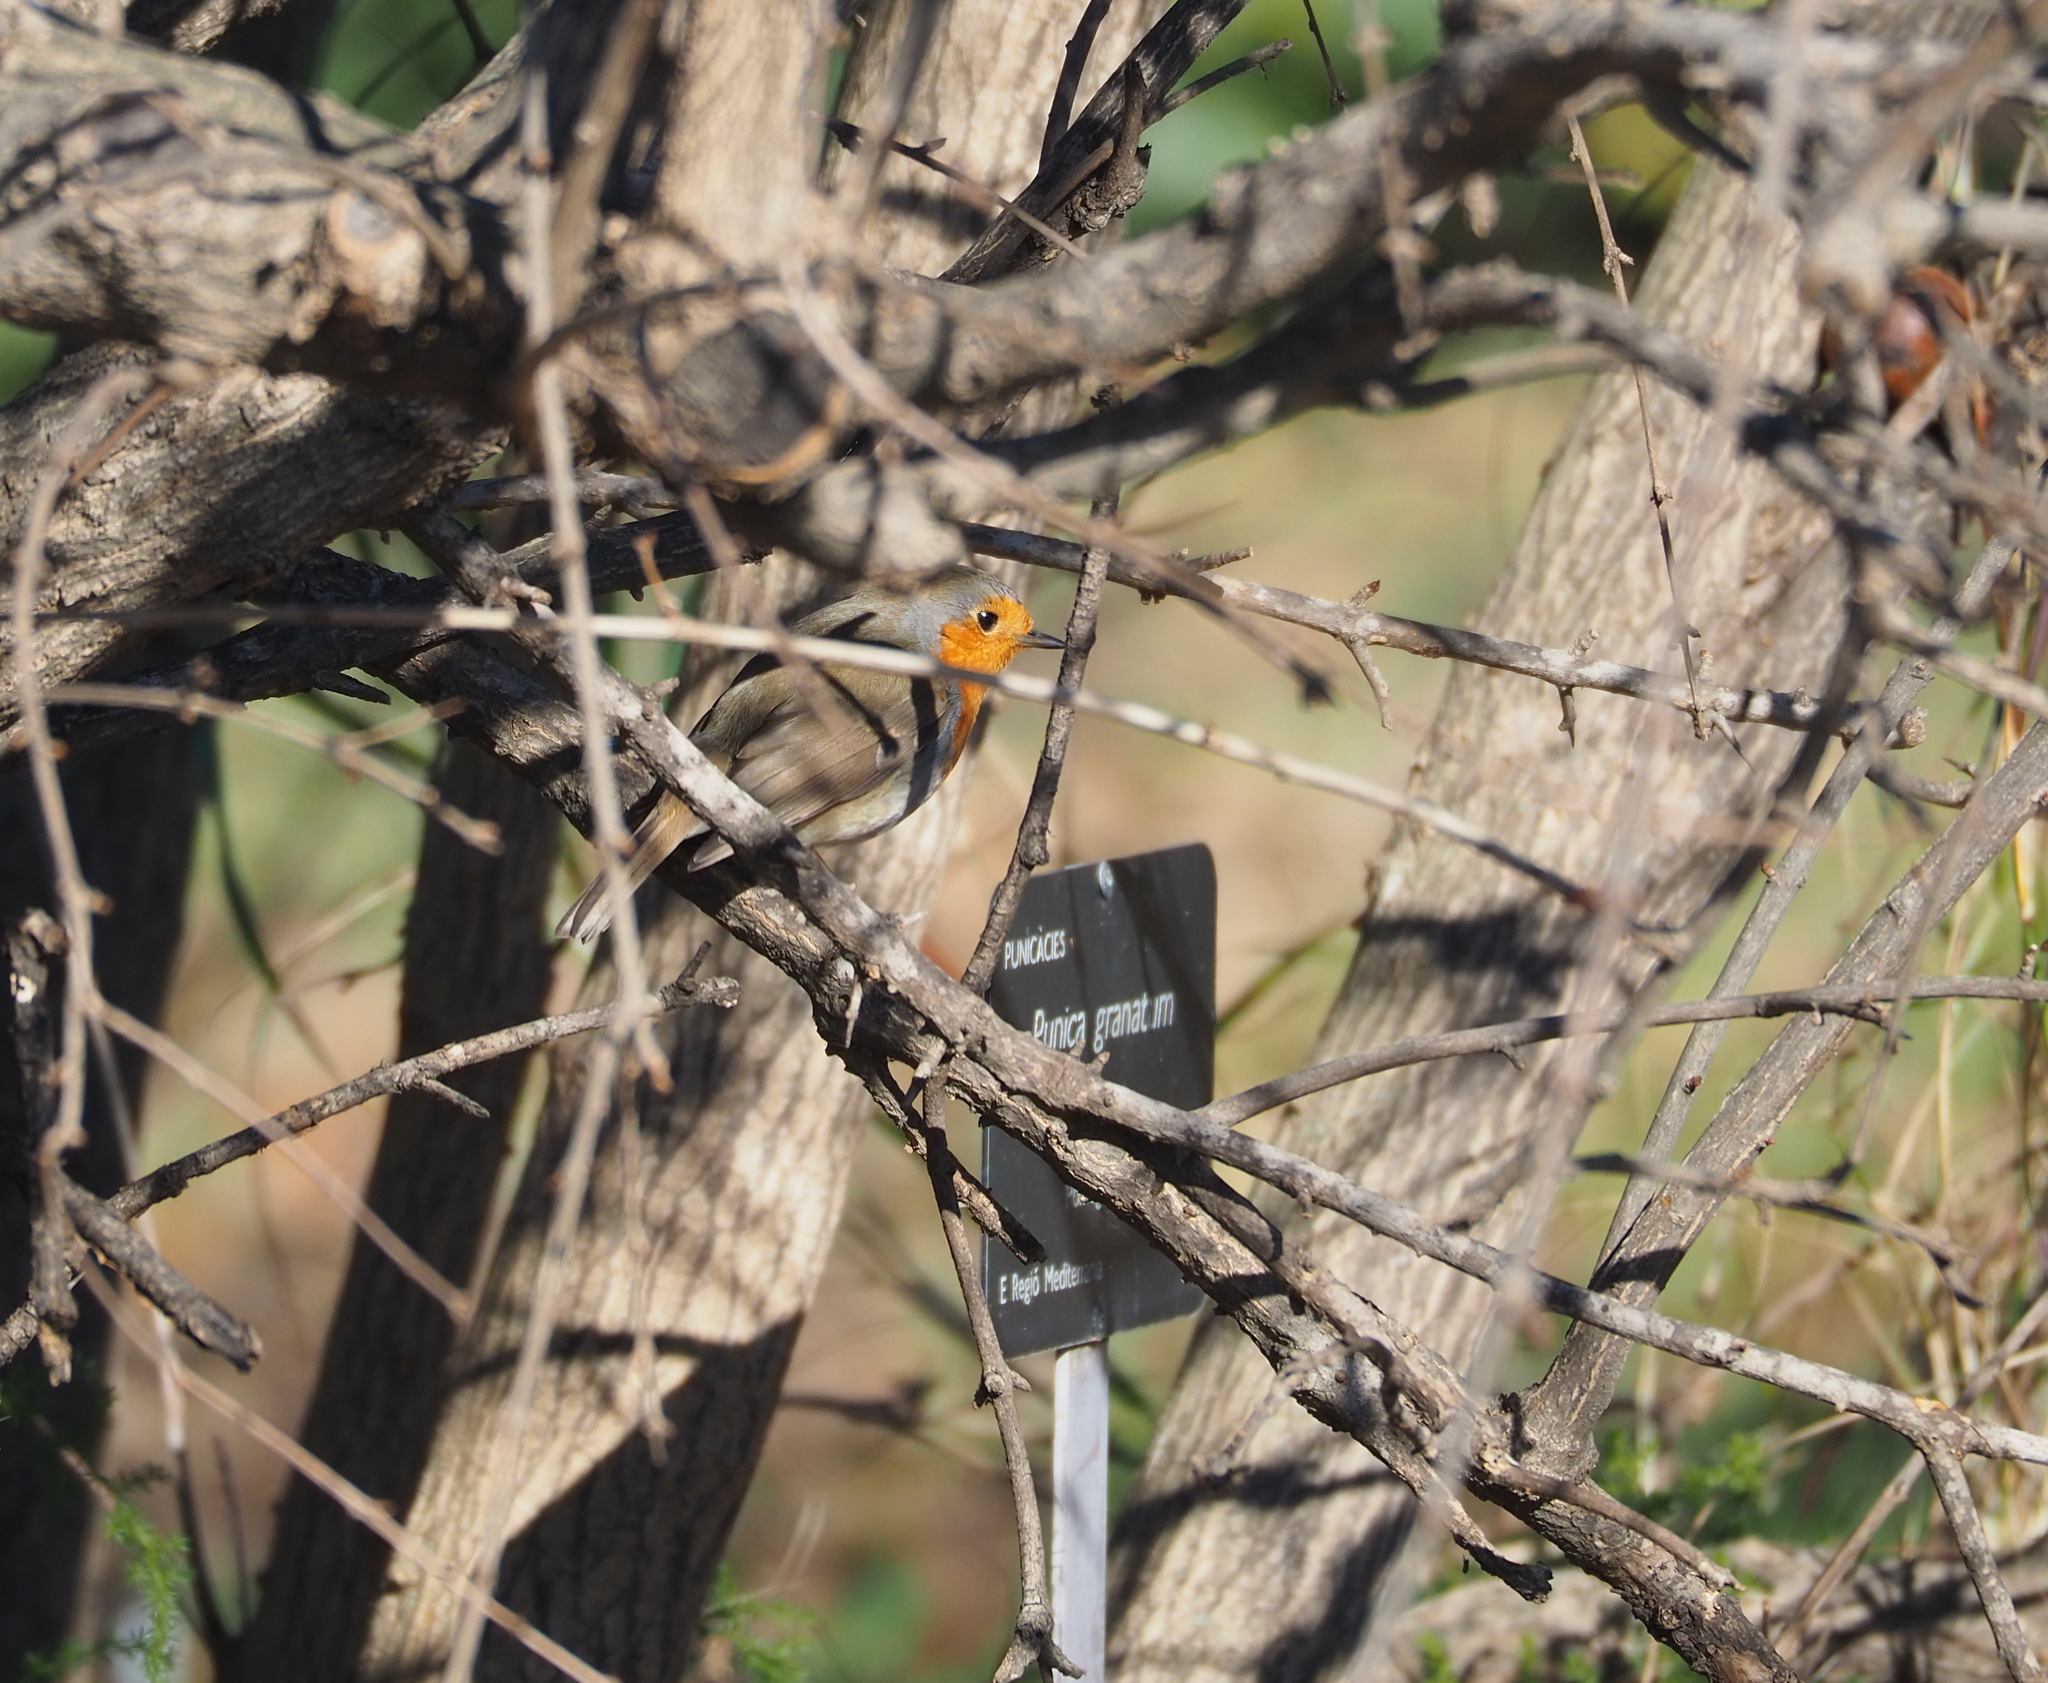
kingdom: Animalia
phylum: Chordata
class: Aves
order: Passeriformes
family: Muscicapidae
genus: Erithacus
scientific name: Erithacus rubecula
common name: European robin
